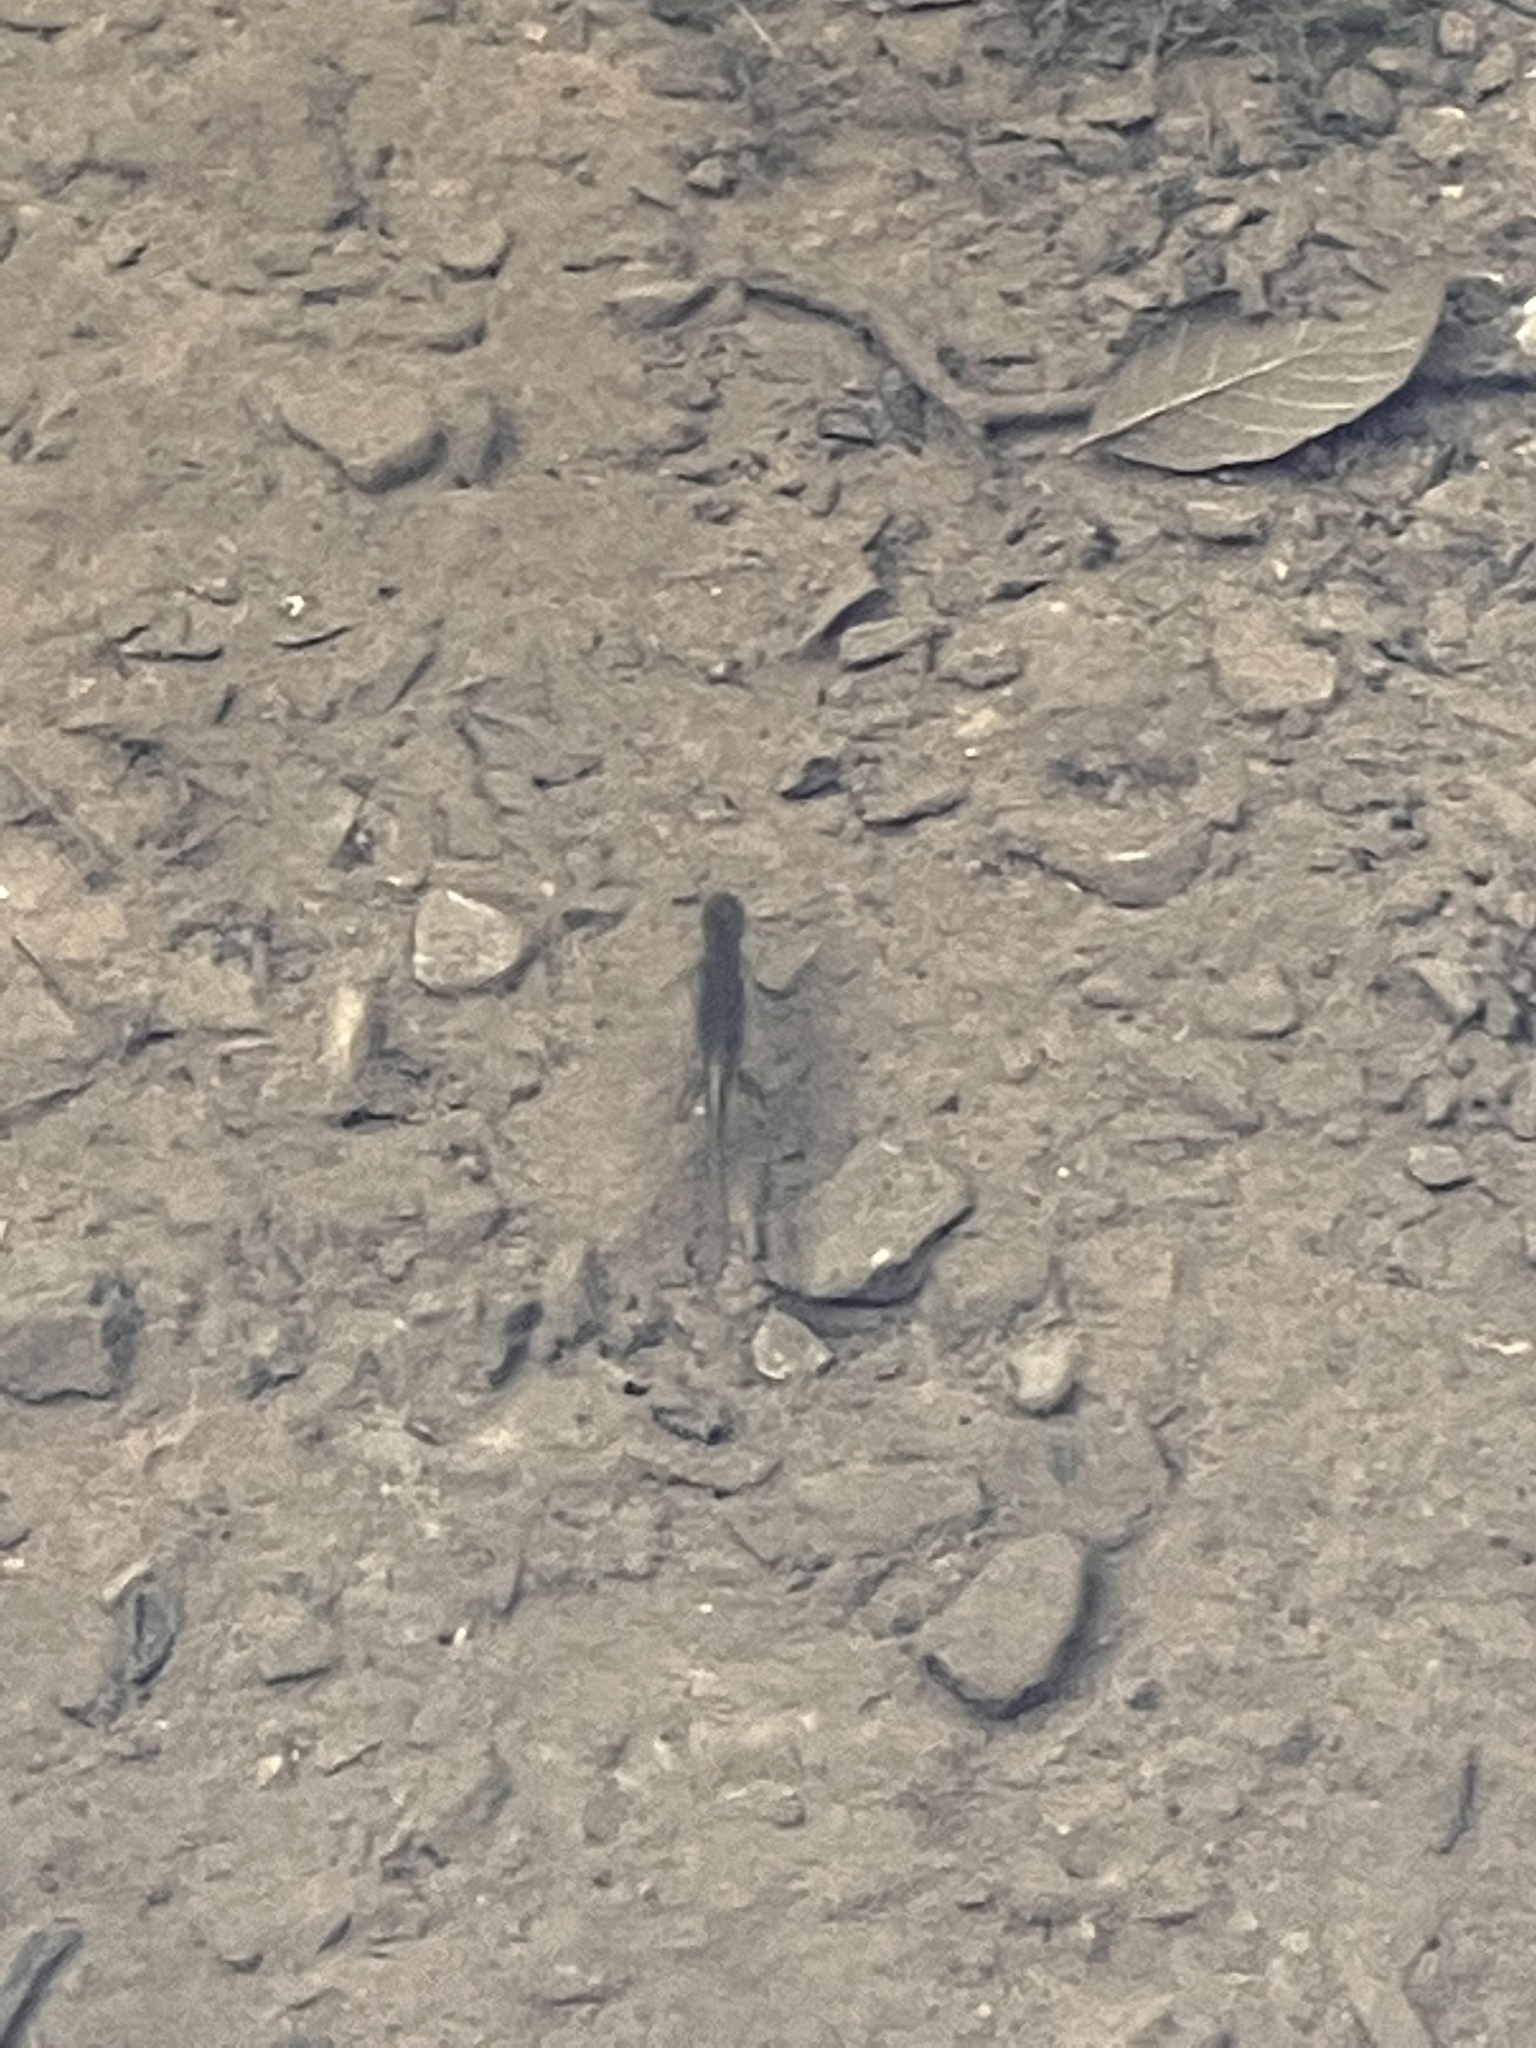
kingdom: Animalia
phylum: Chordata
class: Amphibia
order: Caudata
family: Salamandridae
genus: Notophthalmus
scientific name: Notophthalmus viridescens
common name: Eastern newt
